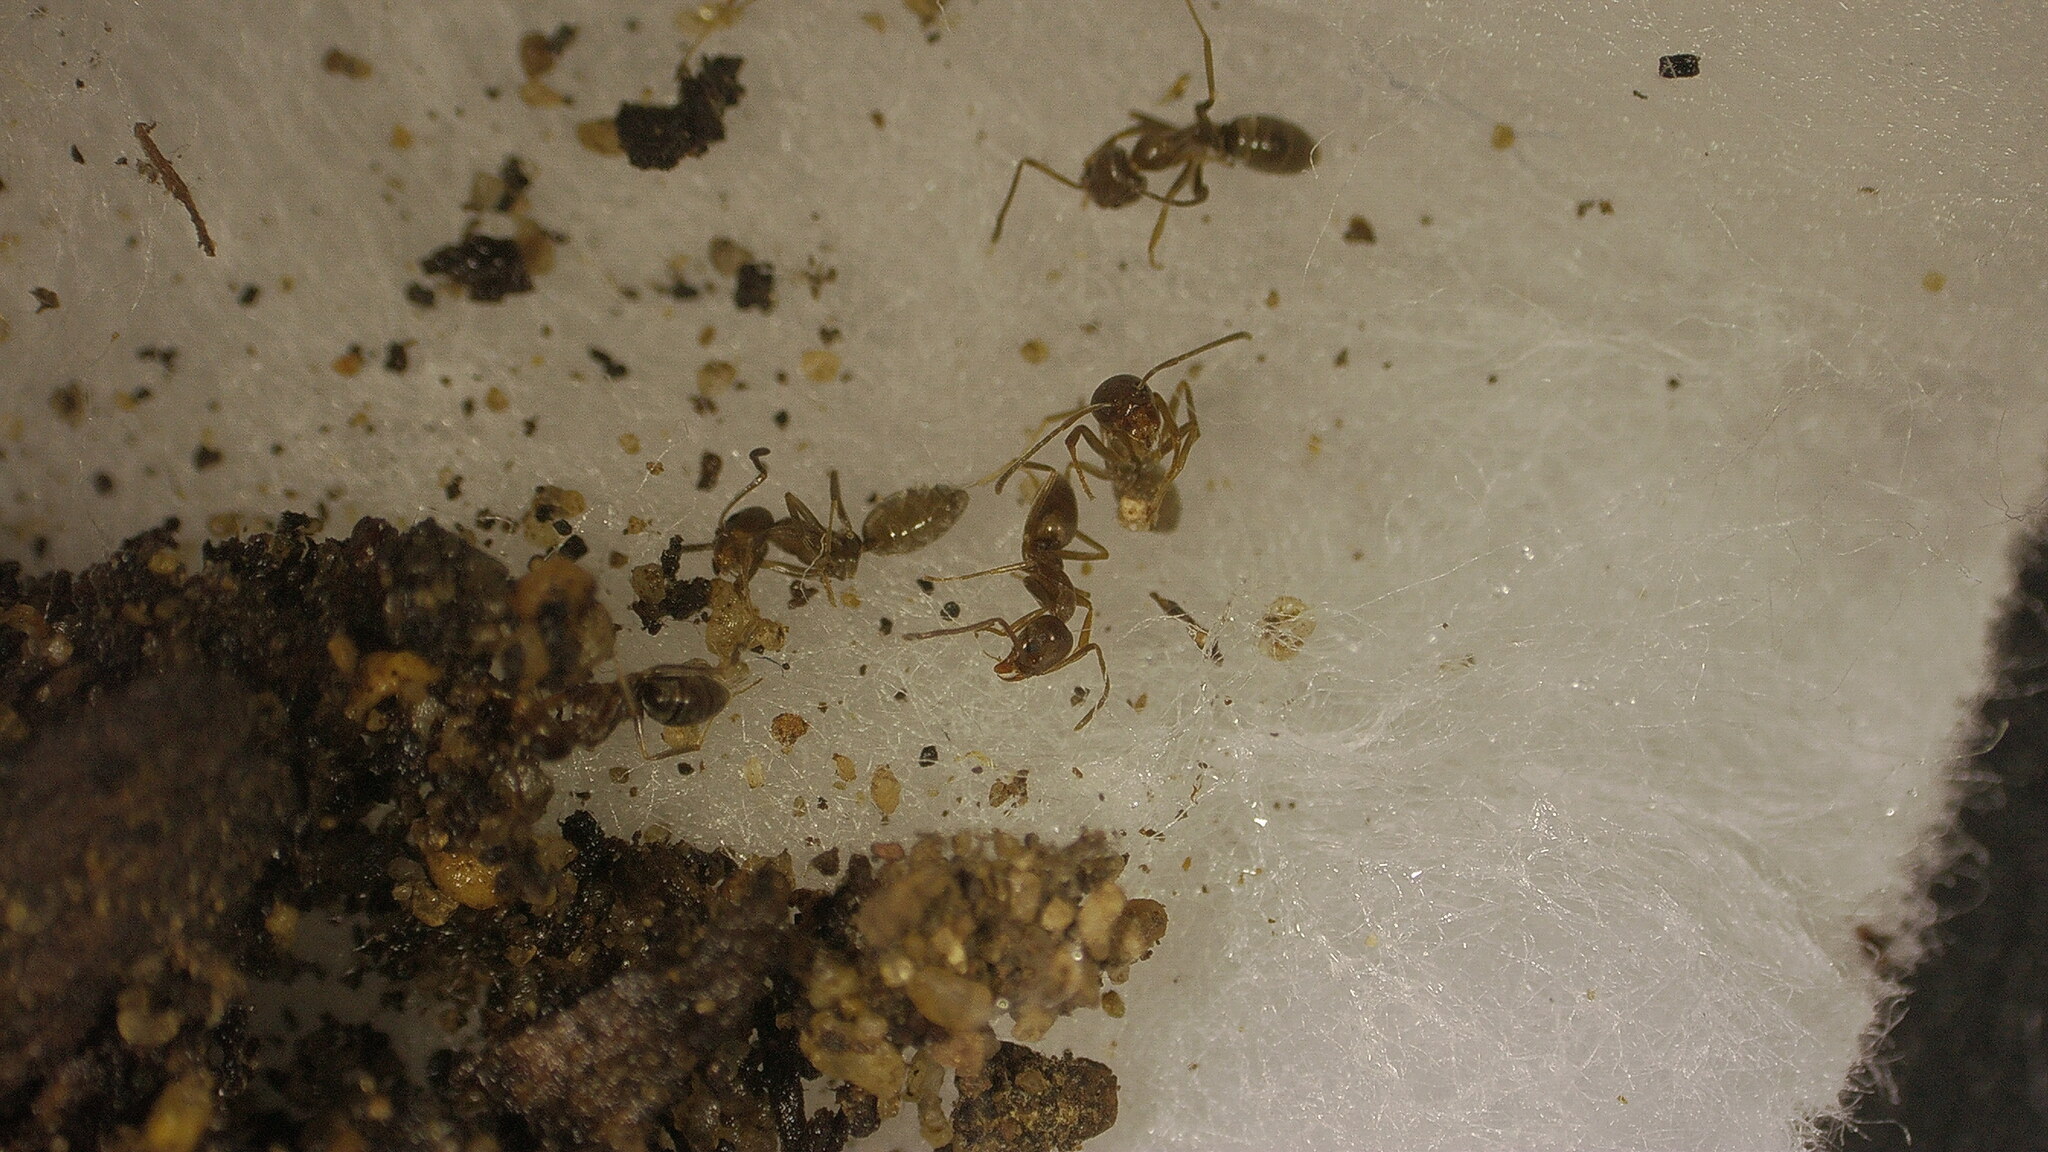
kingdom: Animalia
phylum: Arthropoda
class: Insecta
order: Hymenoptera
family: Formicidae
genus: Linepithema
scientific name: Linepithema humile
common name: Argentine ant
